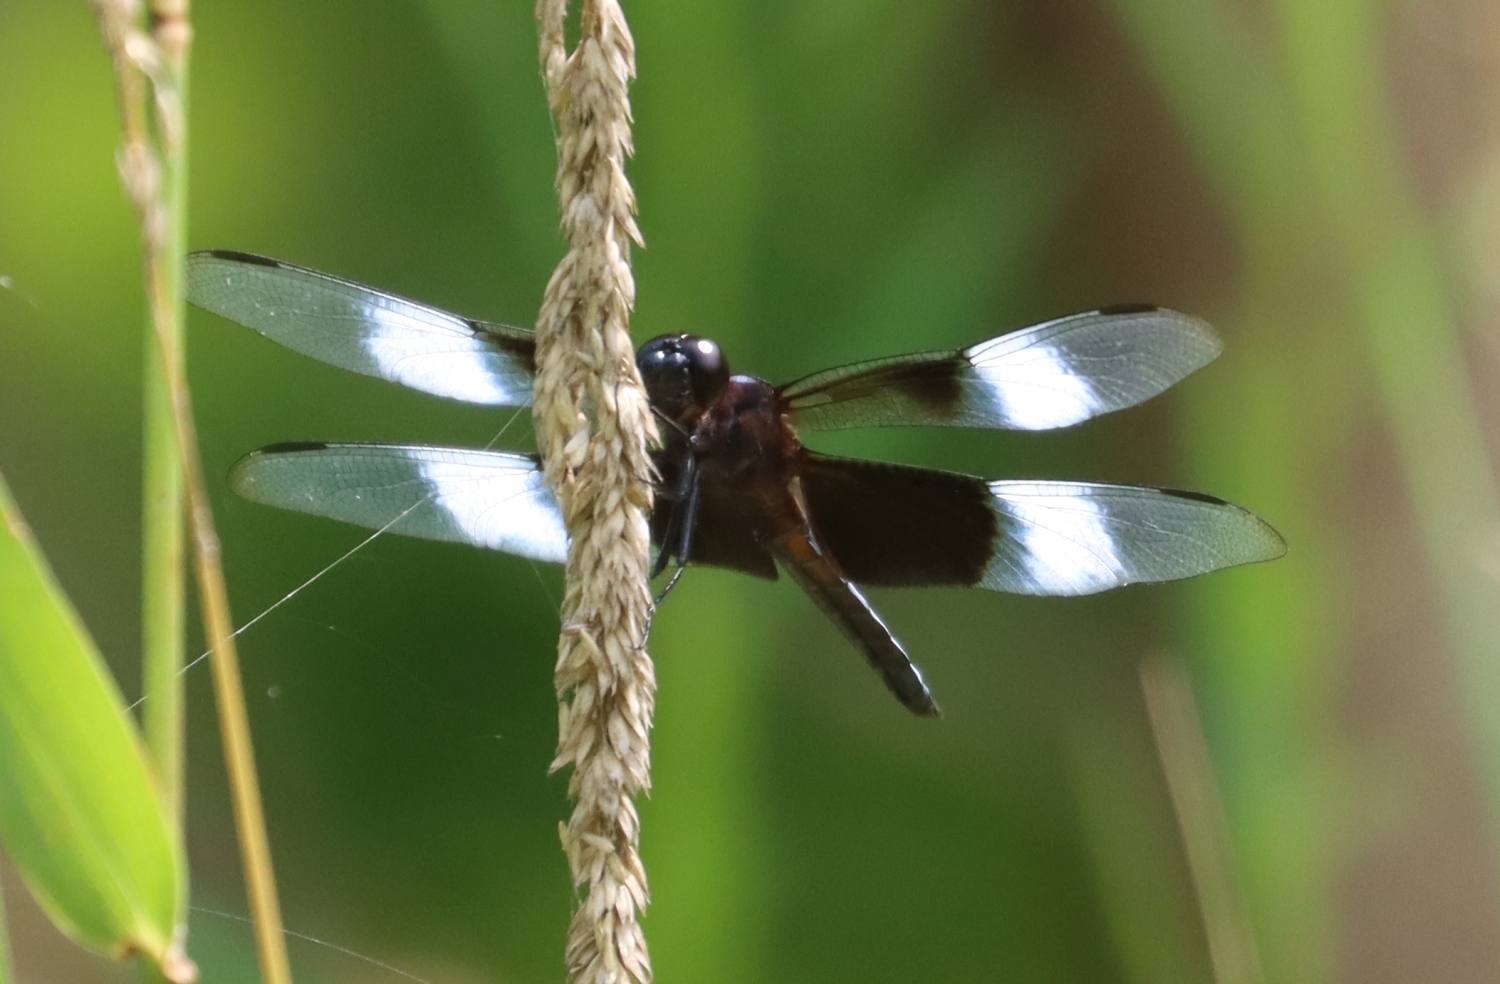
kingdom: Animalia
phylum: Arthropoda
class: Insecta
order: Odonata
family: Libellulidae
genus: Libellula
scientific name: Libellula luctuosa
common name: Widow skimmer
